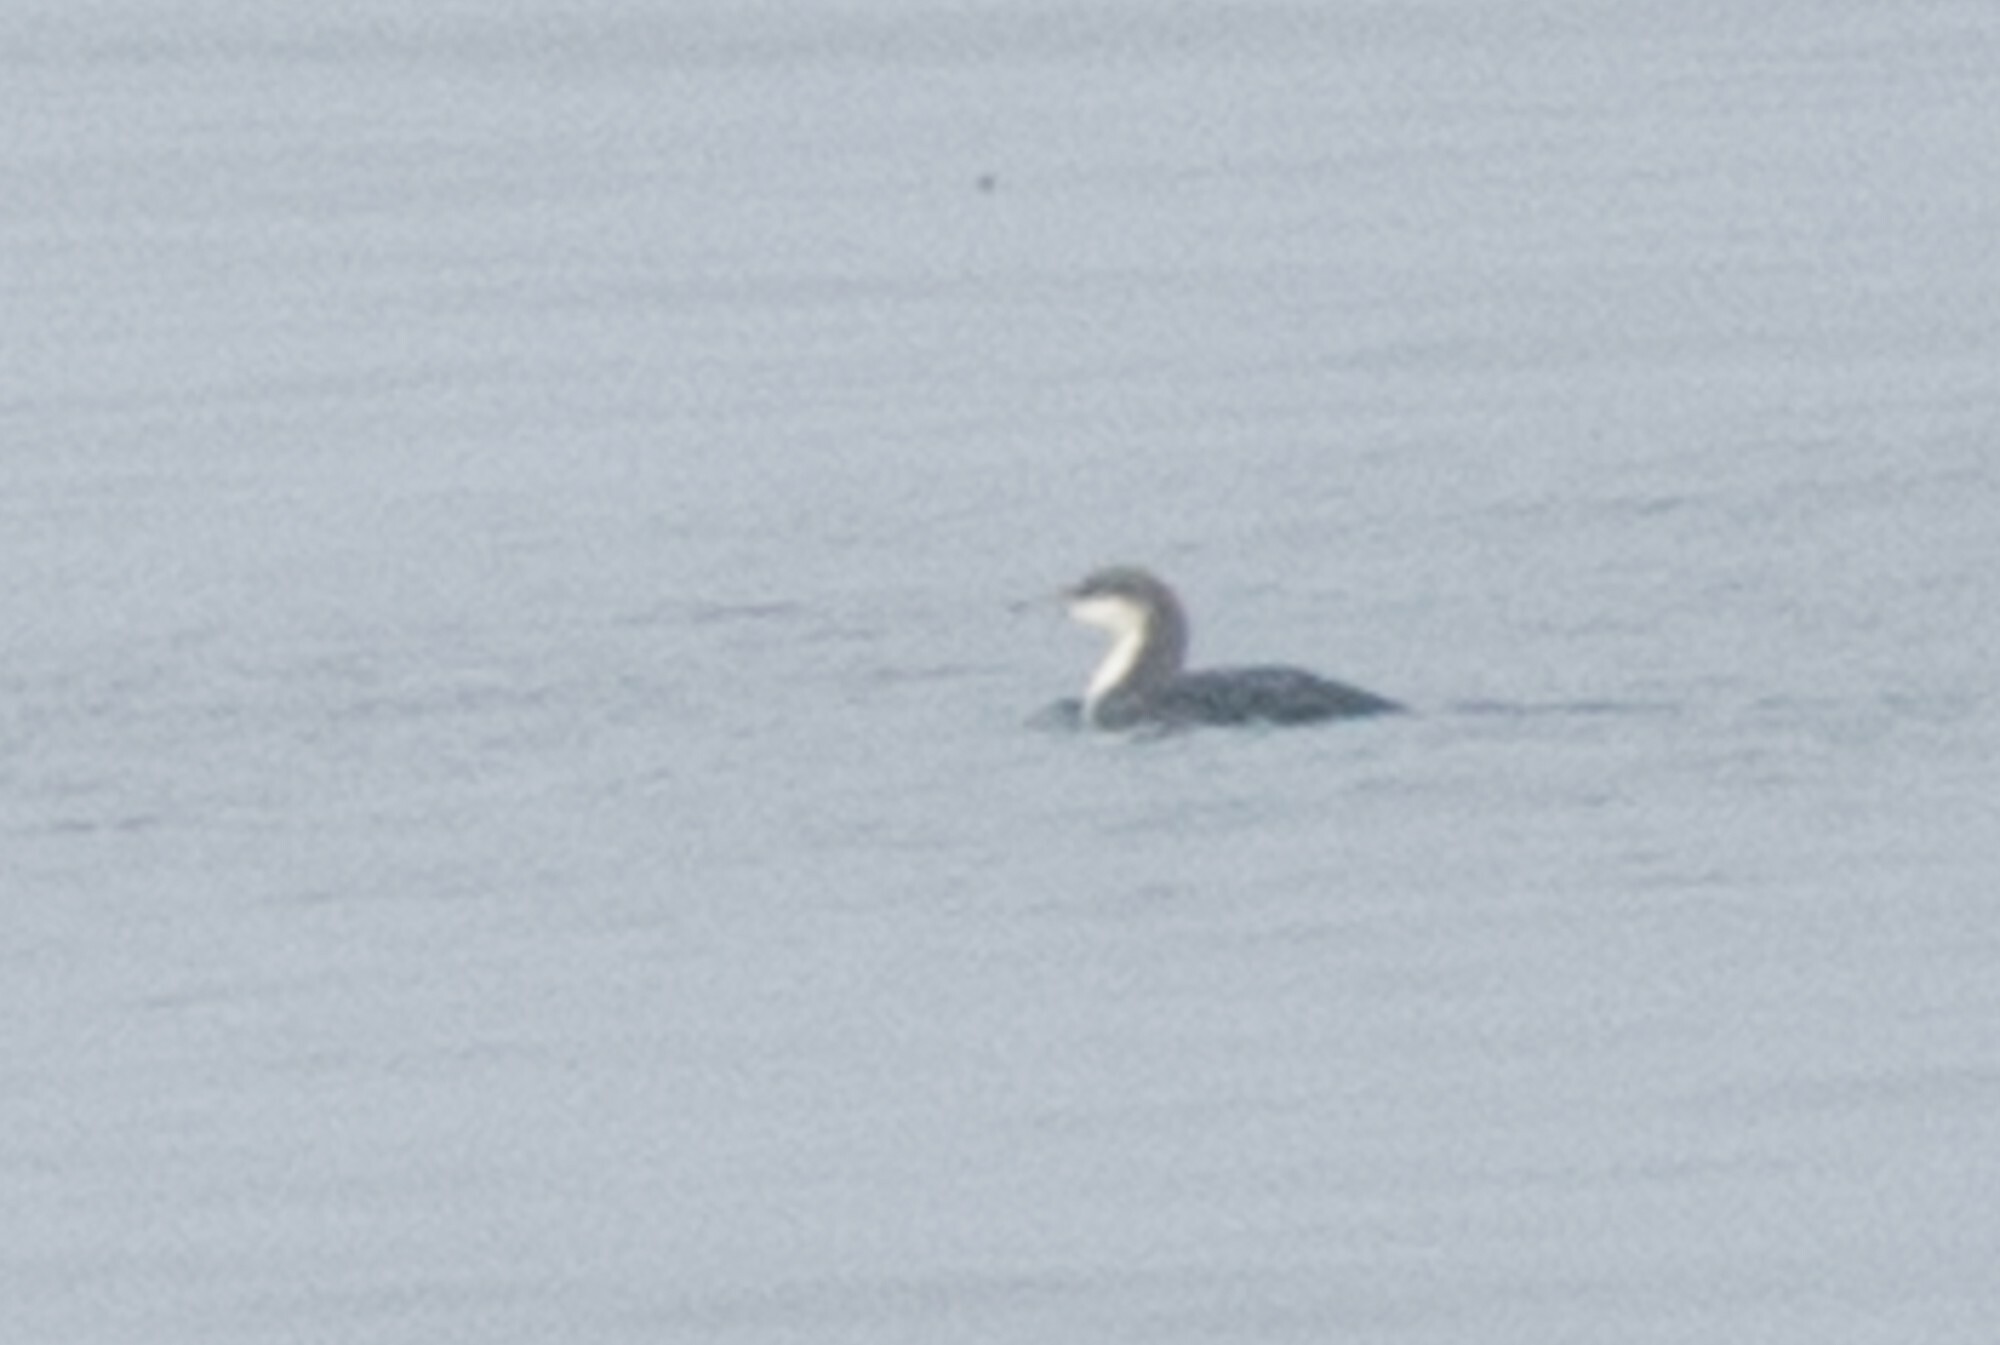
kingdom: Animalia
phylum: Chordata
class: Aves
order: Gaviiformes
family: Gaviidae
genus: Gavia
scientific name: Gavia pacifica
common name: Pacific loon
